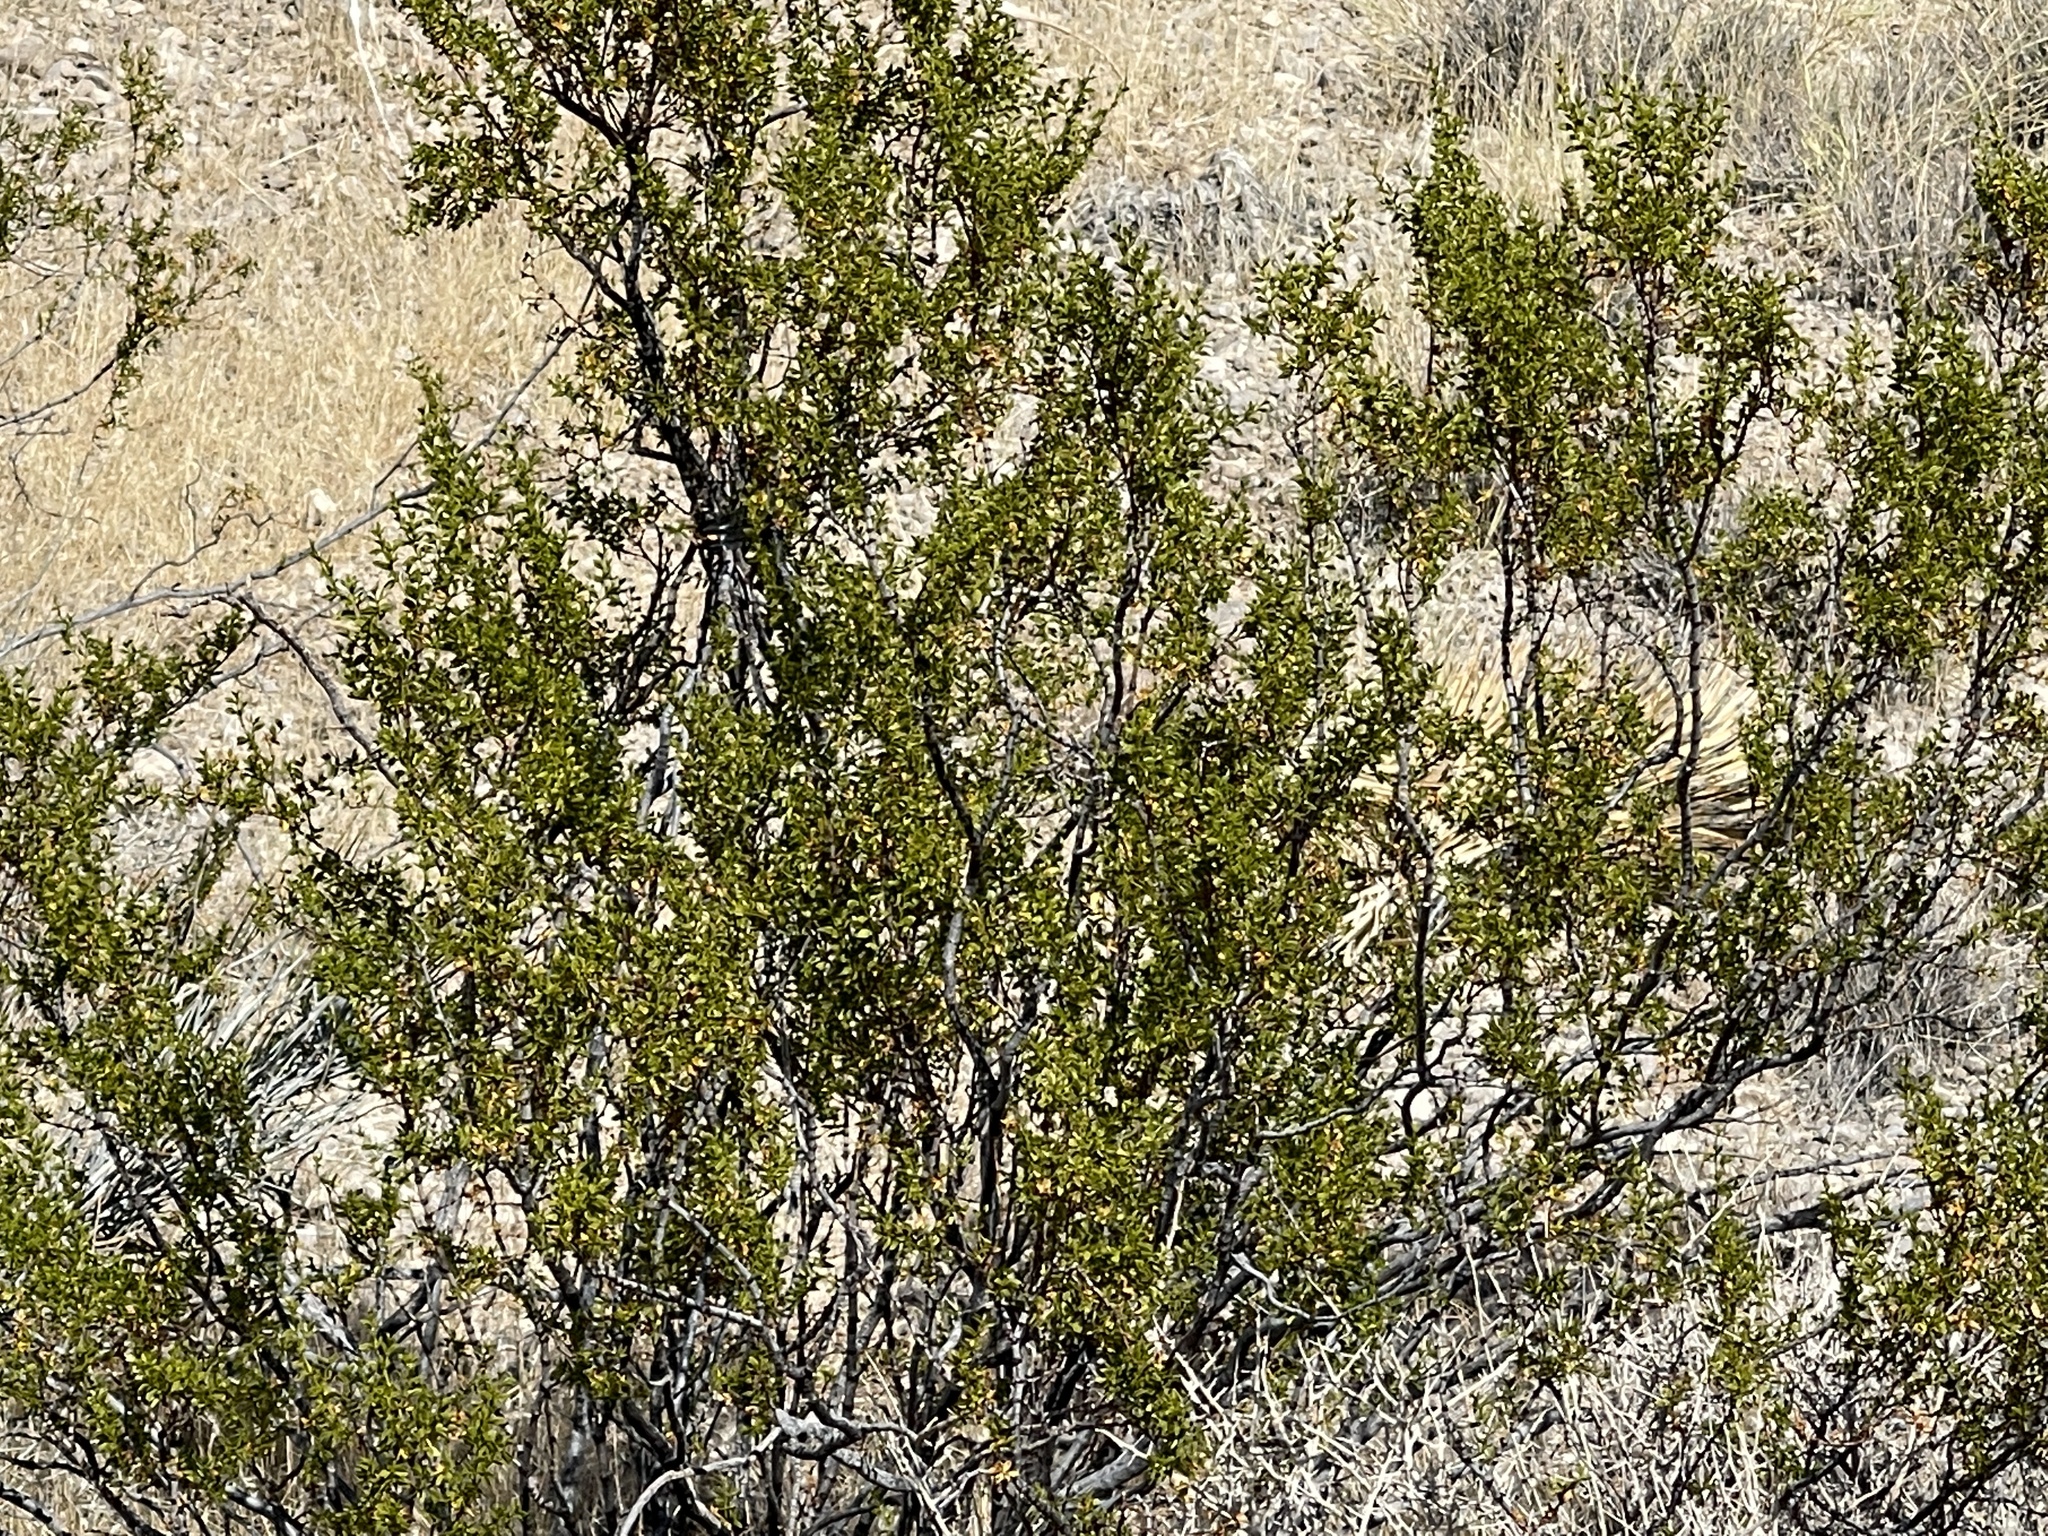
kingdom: Plantae
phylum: Tracheophyta
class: Magnoliopsida
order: Zygophyllales
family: Zygophyllaceae
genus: Larrea
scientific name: Larrea tridentata
